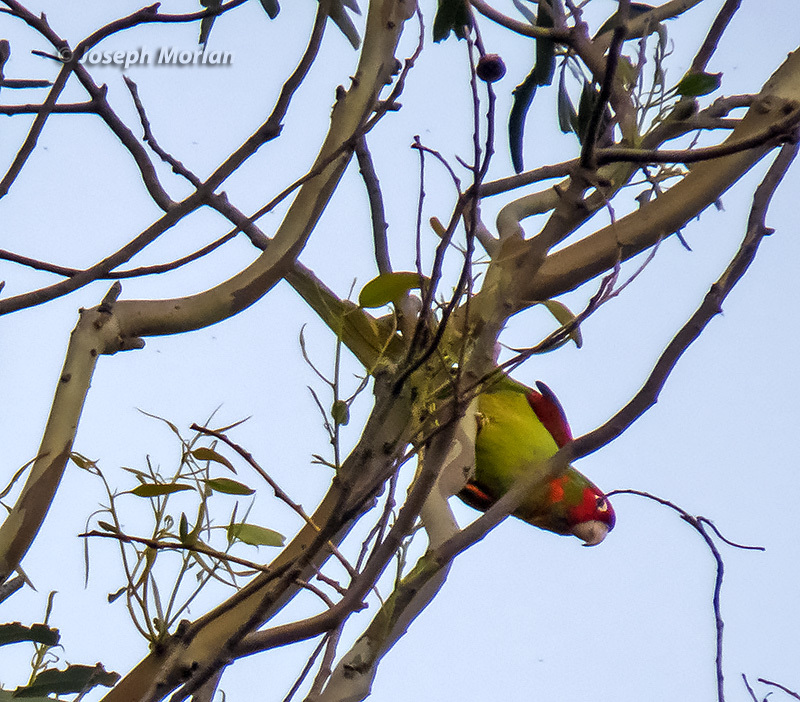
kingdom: Animalia
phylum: Chordata
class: Aves
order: Psittaciformes
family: Psittacidae
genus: Aratinga
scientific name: Aratinga erythrogenys
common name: Red-masked parakeet
